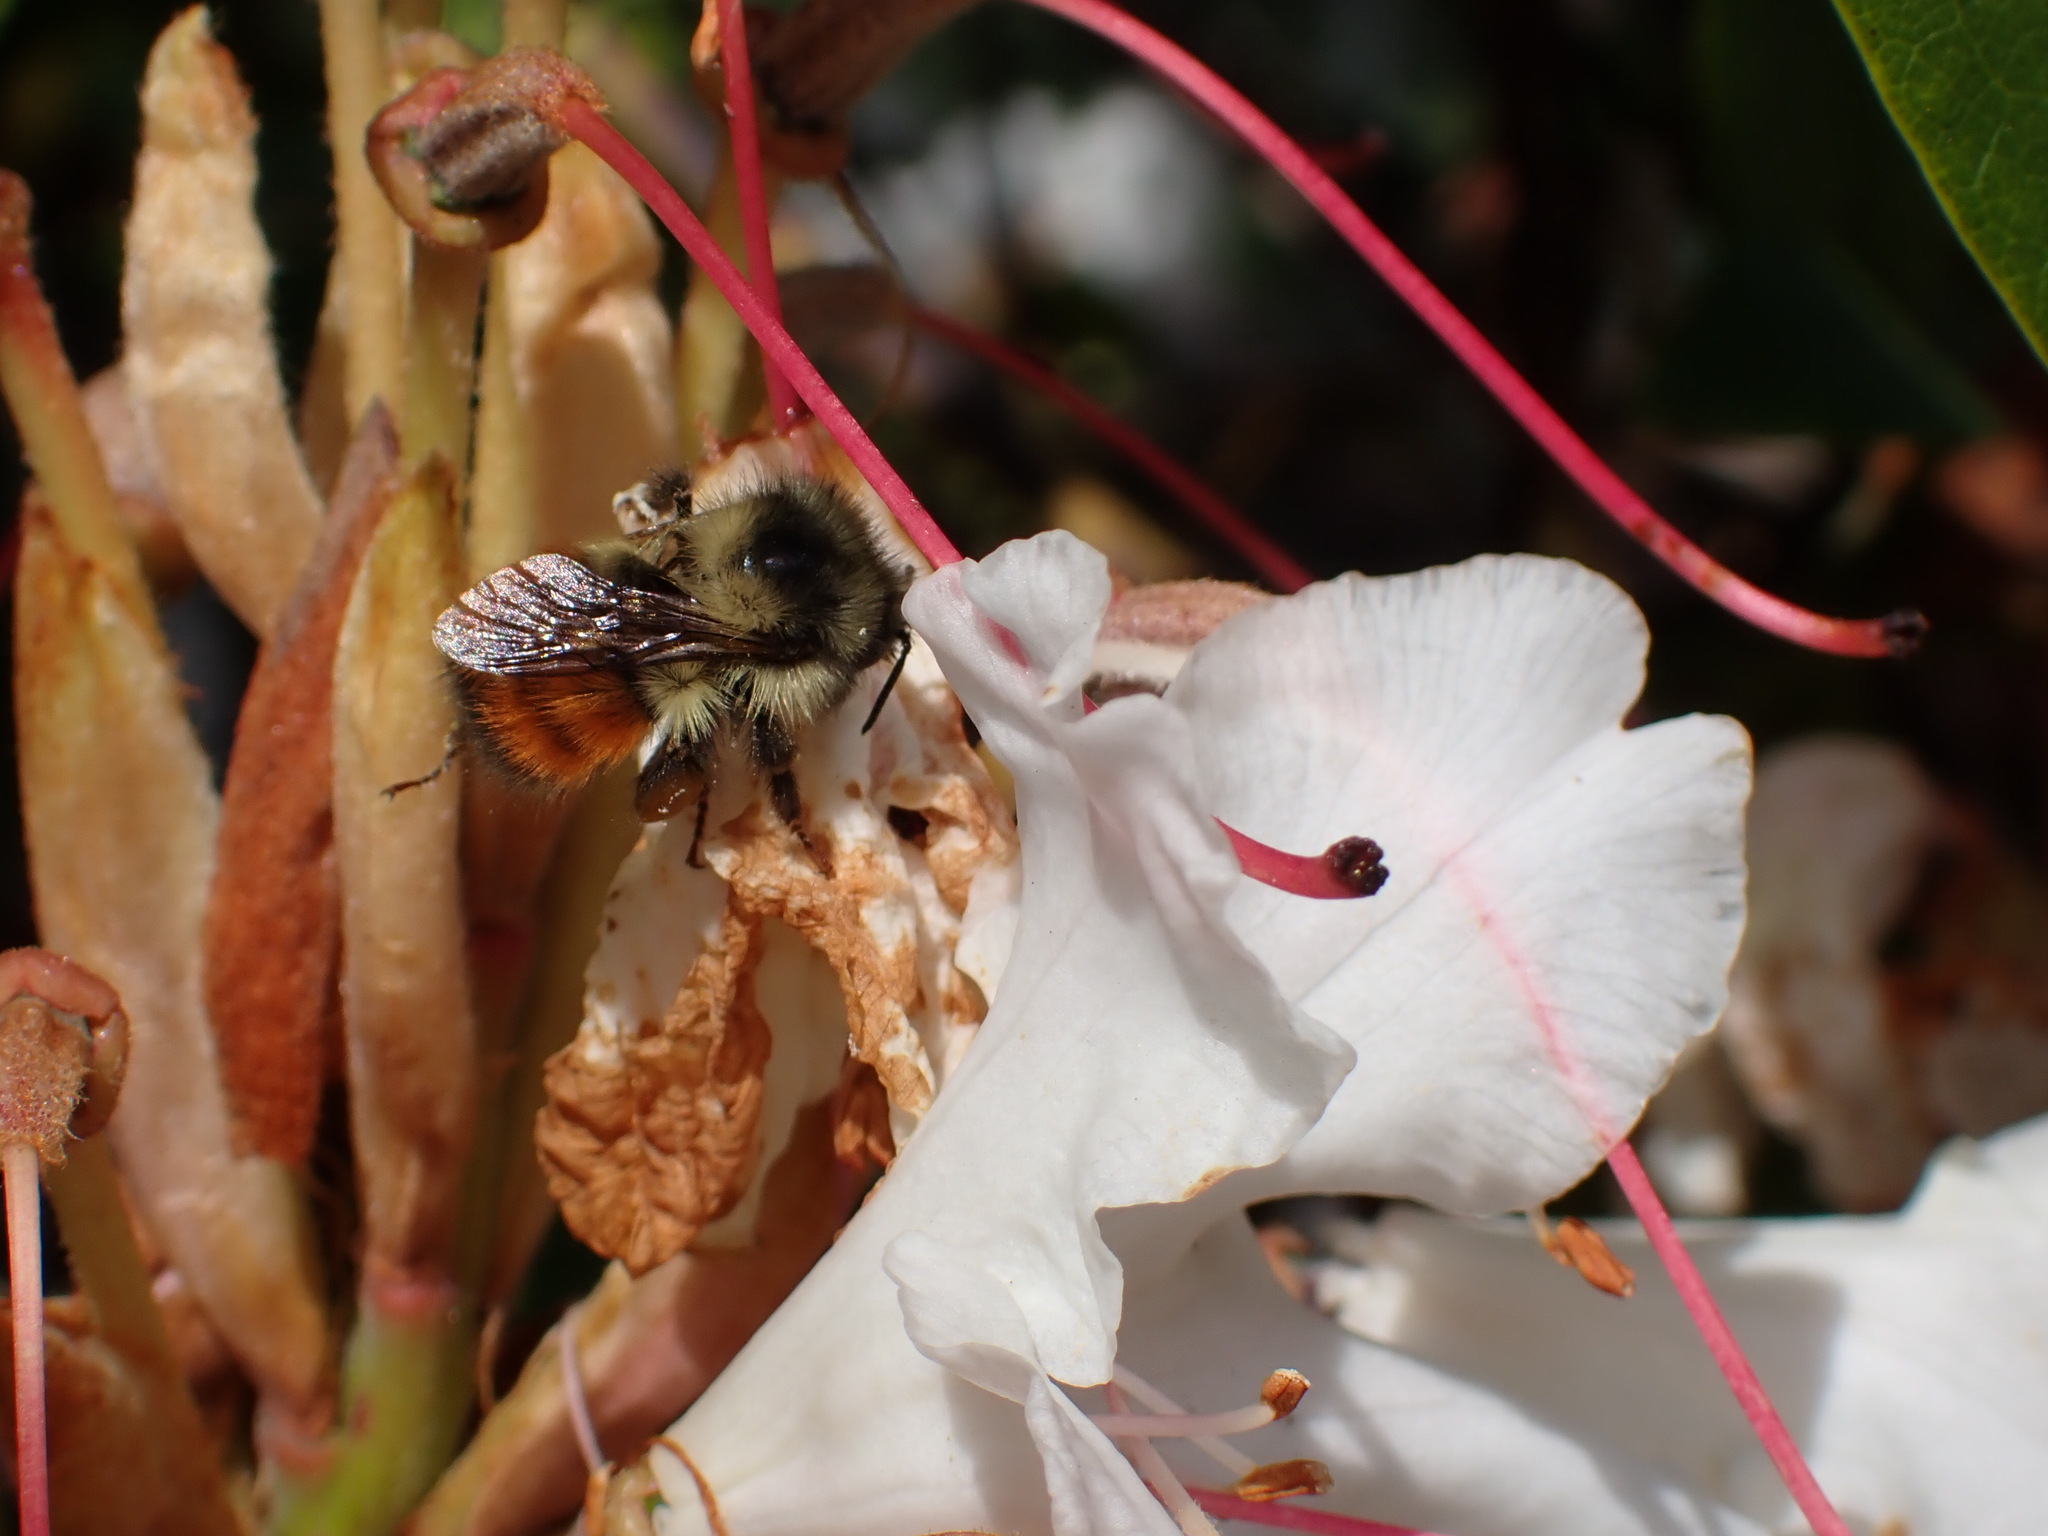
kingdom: Animalia
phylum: Arthropoda
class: Insecta
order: Hymenoptera
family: Apidae
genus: Bombus
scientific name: Bombus melanopygus
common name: Black tail bumble bee
